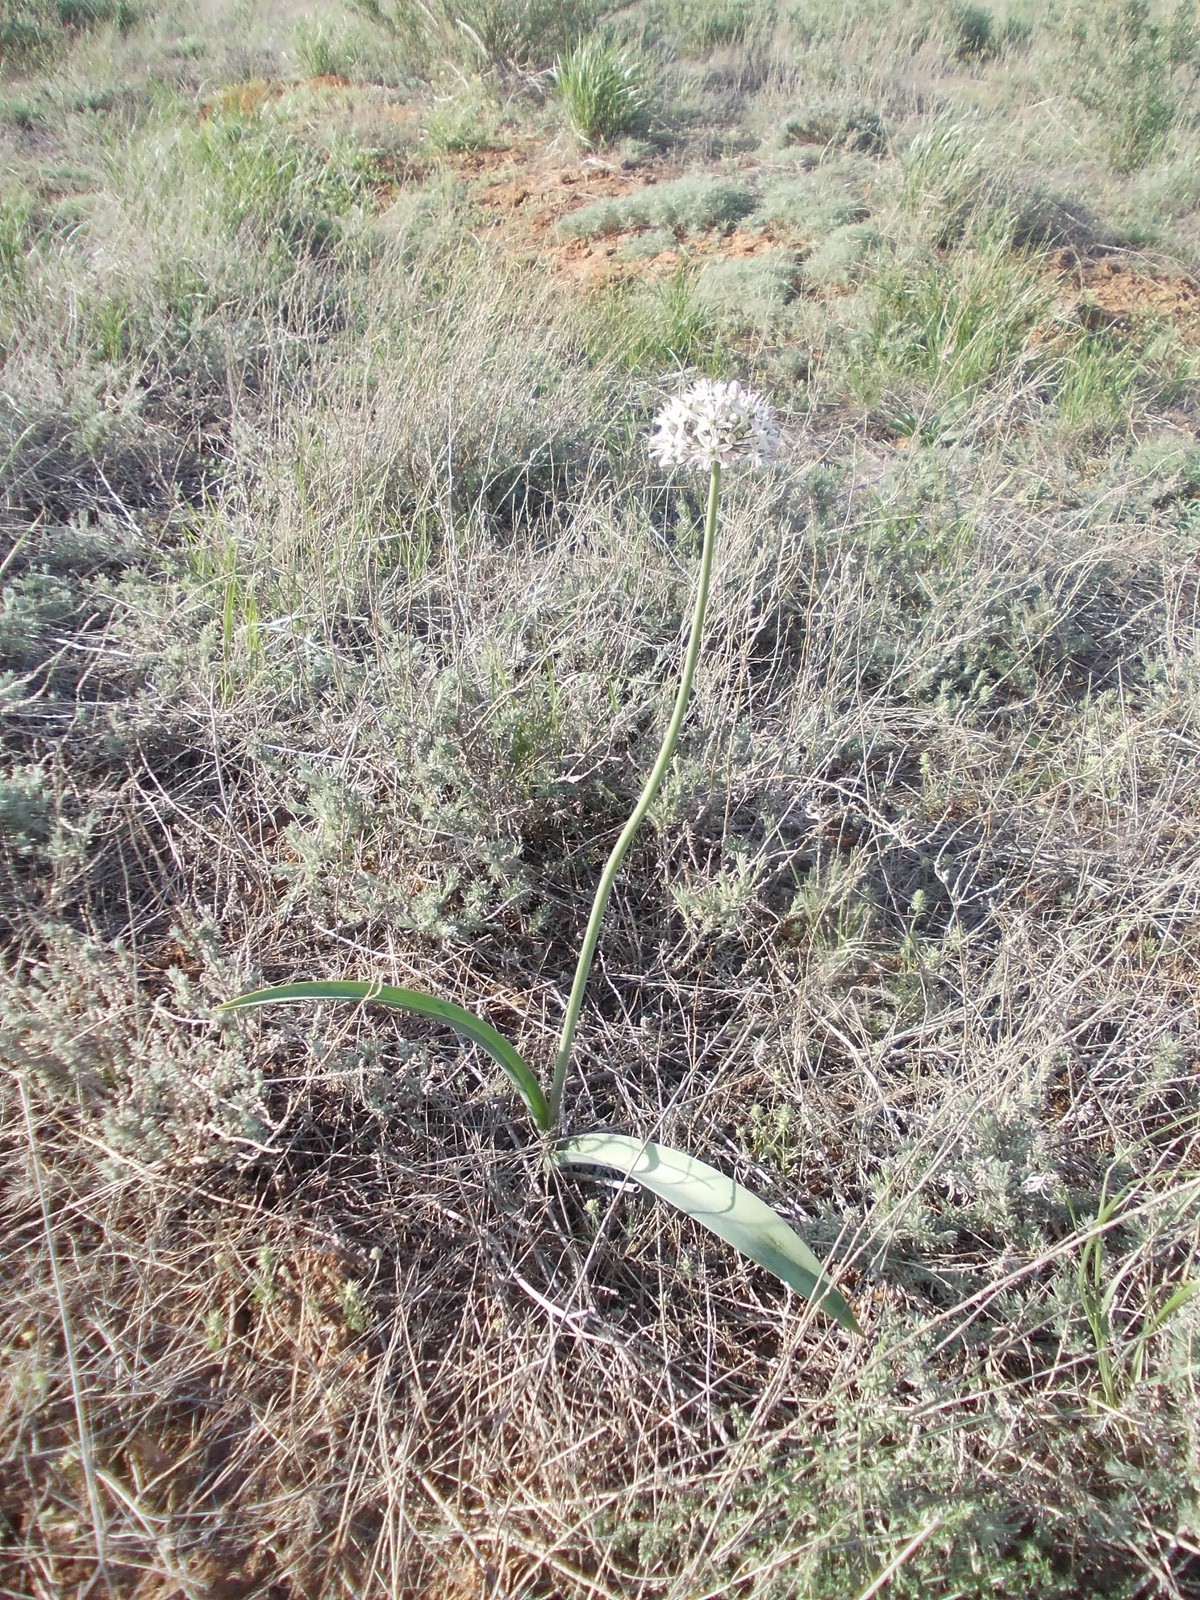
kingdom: Plantae
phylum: Tracheophyta
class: Liliopsida
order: Asparagales
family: Amaryllidaceae
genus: Allium
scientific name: Allium tulipifolium
